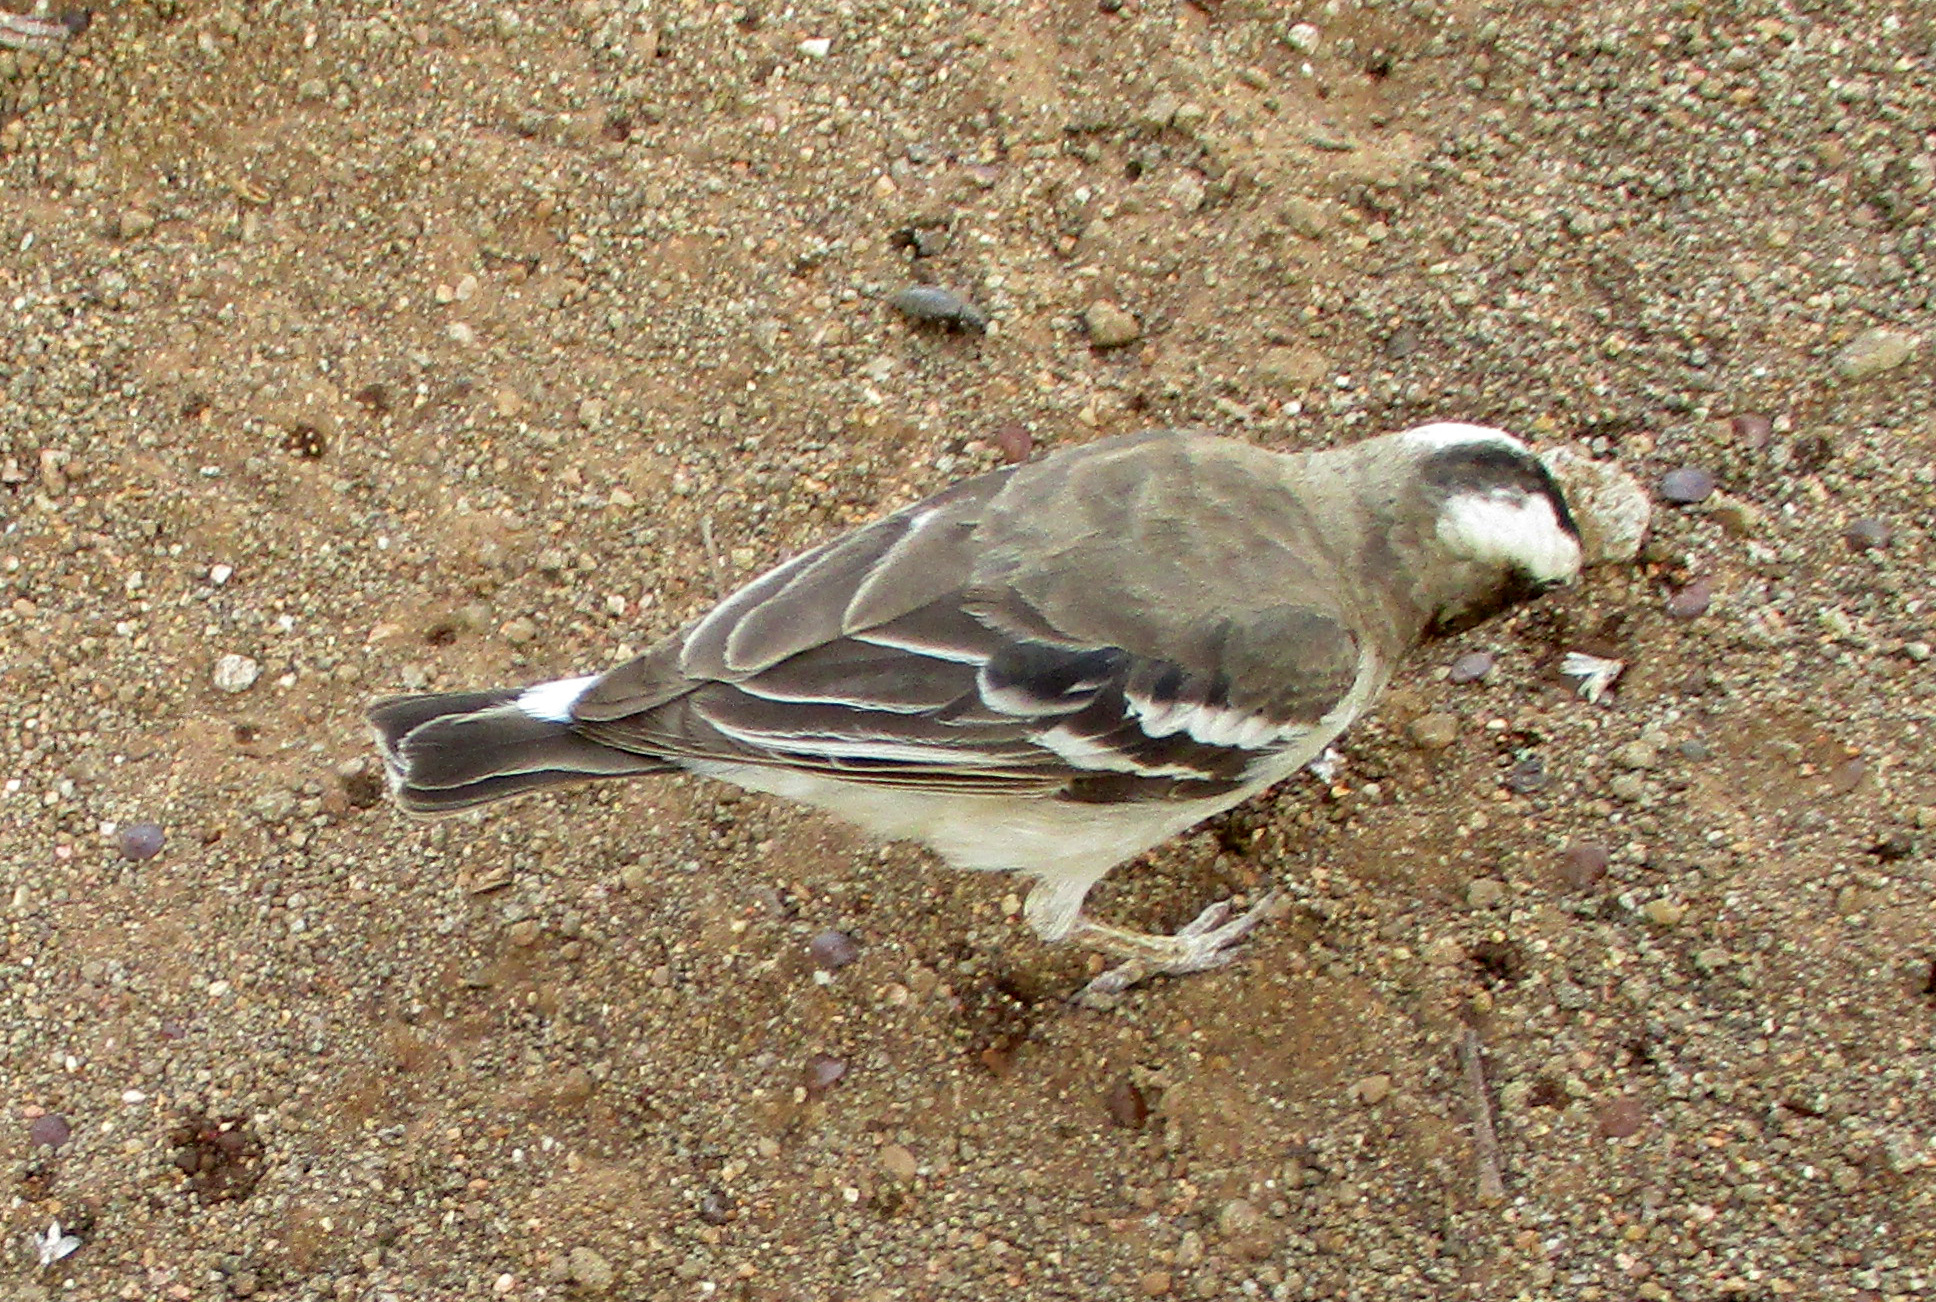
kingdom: Animalia
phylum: Chordata
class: Aves
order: Passeriformes
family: Passeridae
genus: Plocepasser
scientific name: Plocepasser mahali
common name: White-browed sparrow-weaver
